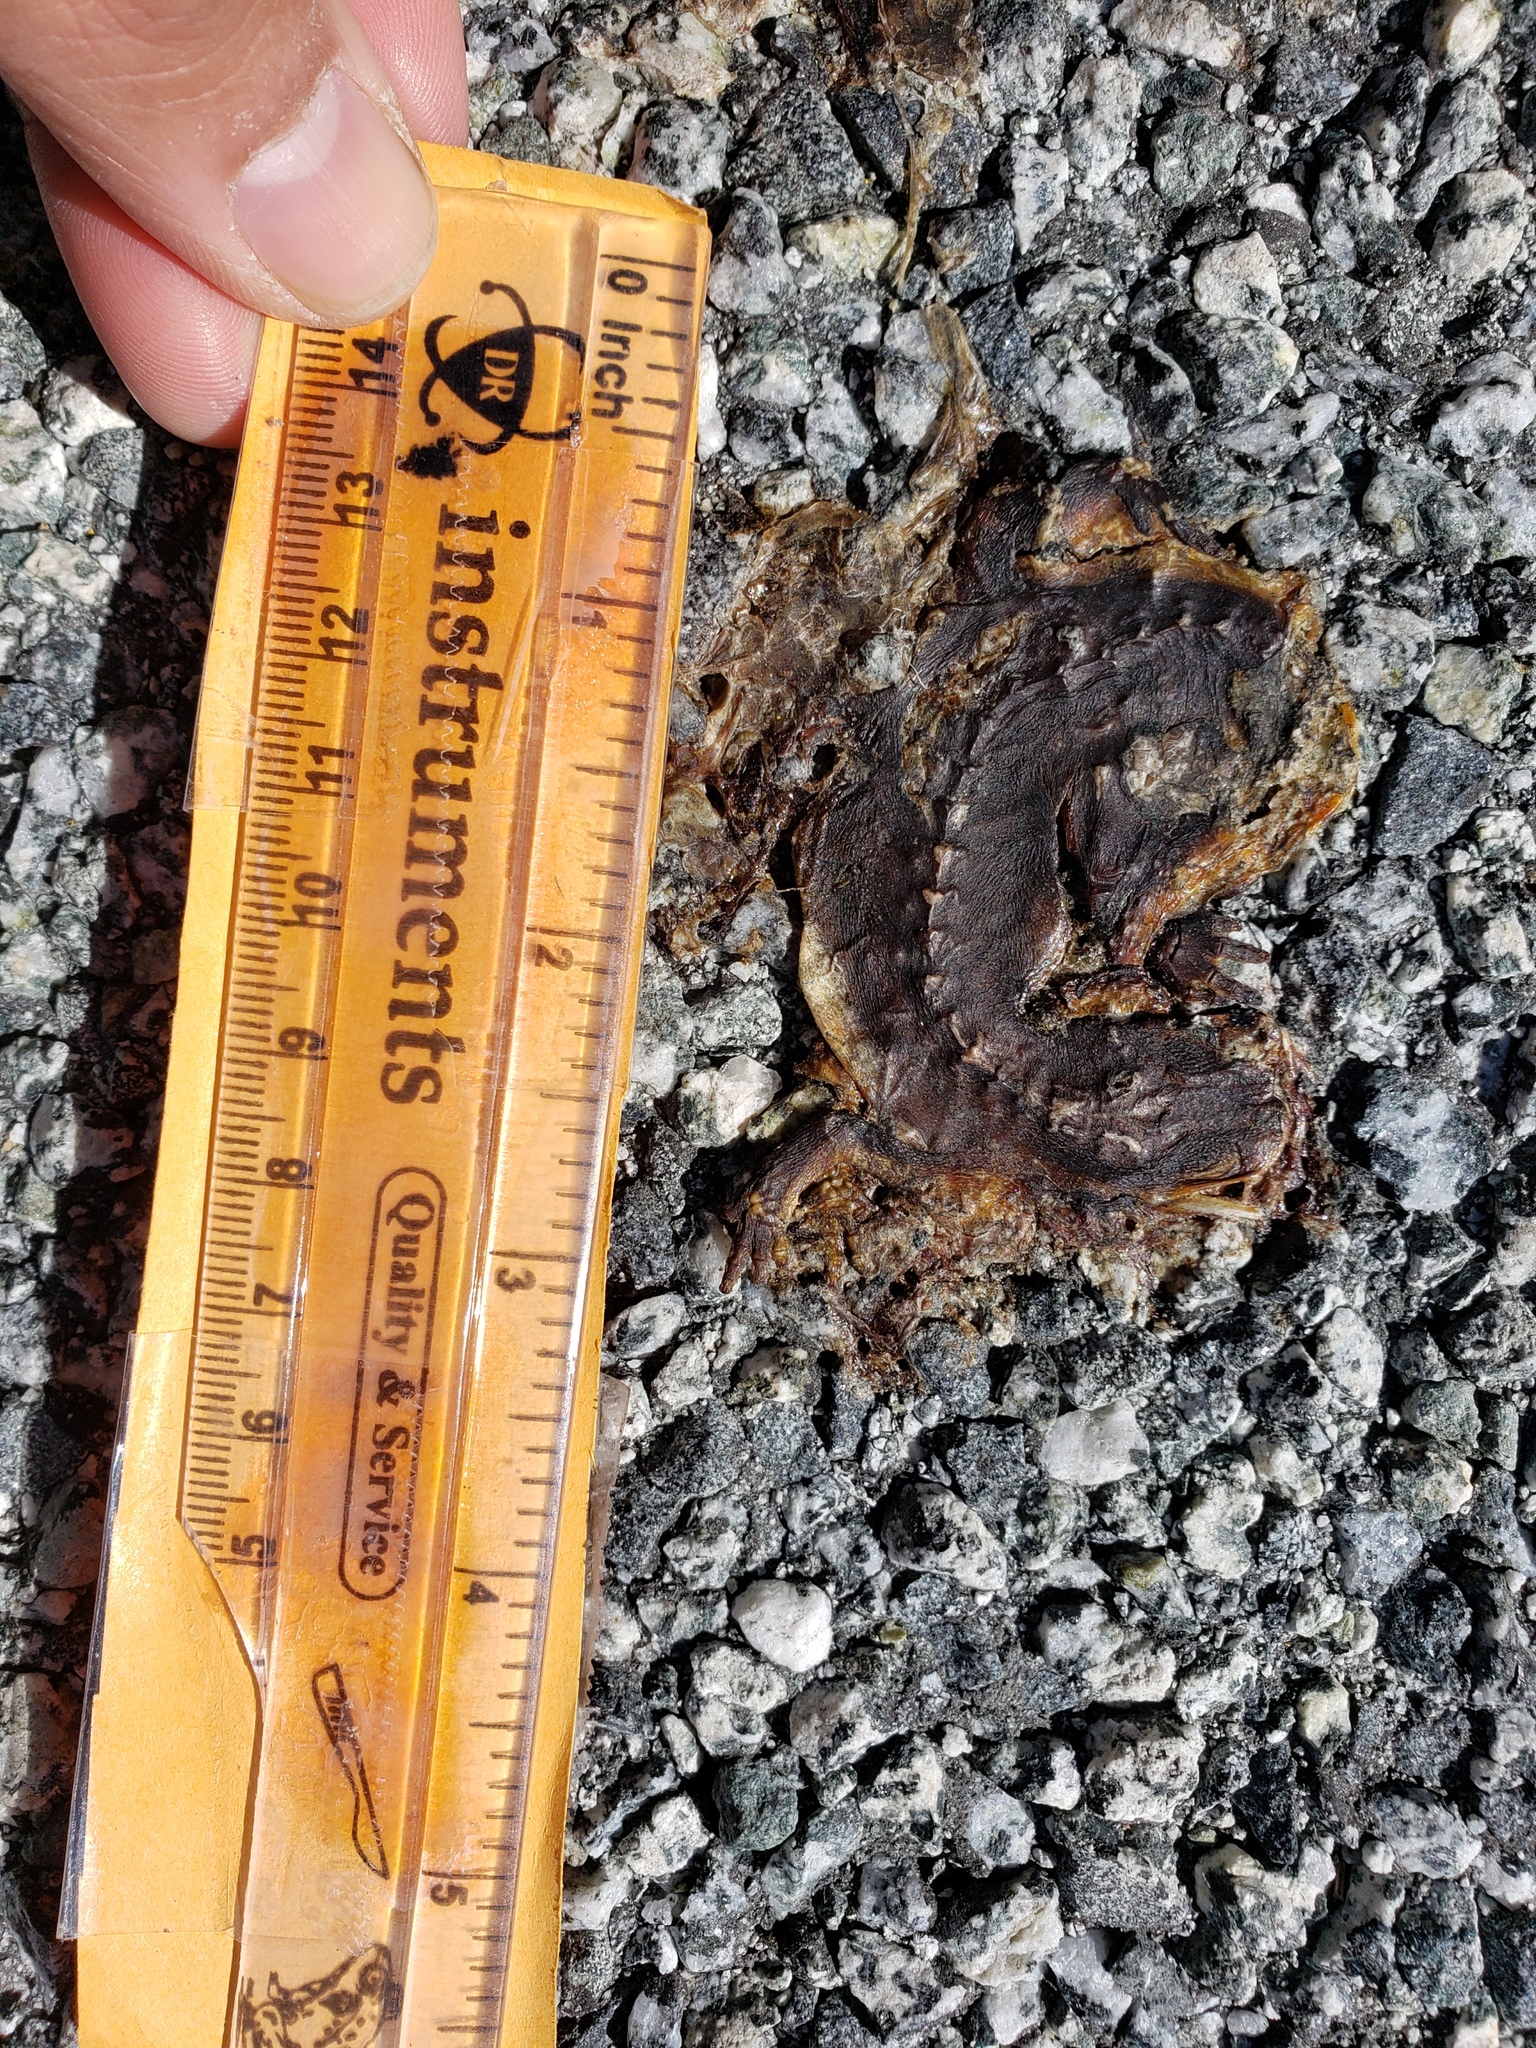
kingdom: Animalia
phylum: Chordata
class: Amphibia
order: Caudata
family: Salamandridae
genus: Taricha
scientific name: Taricha
